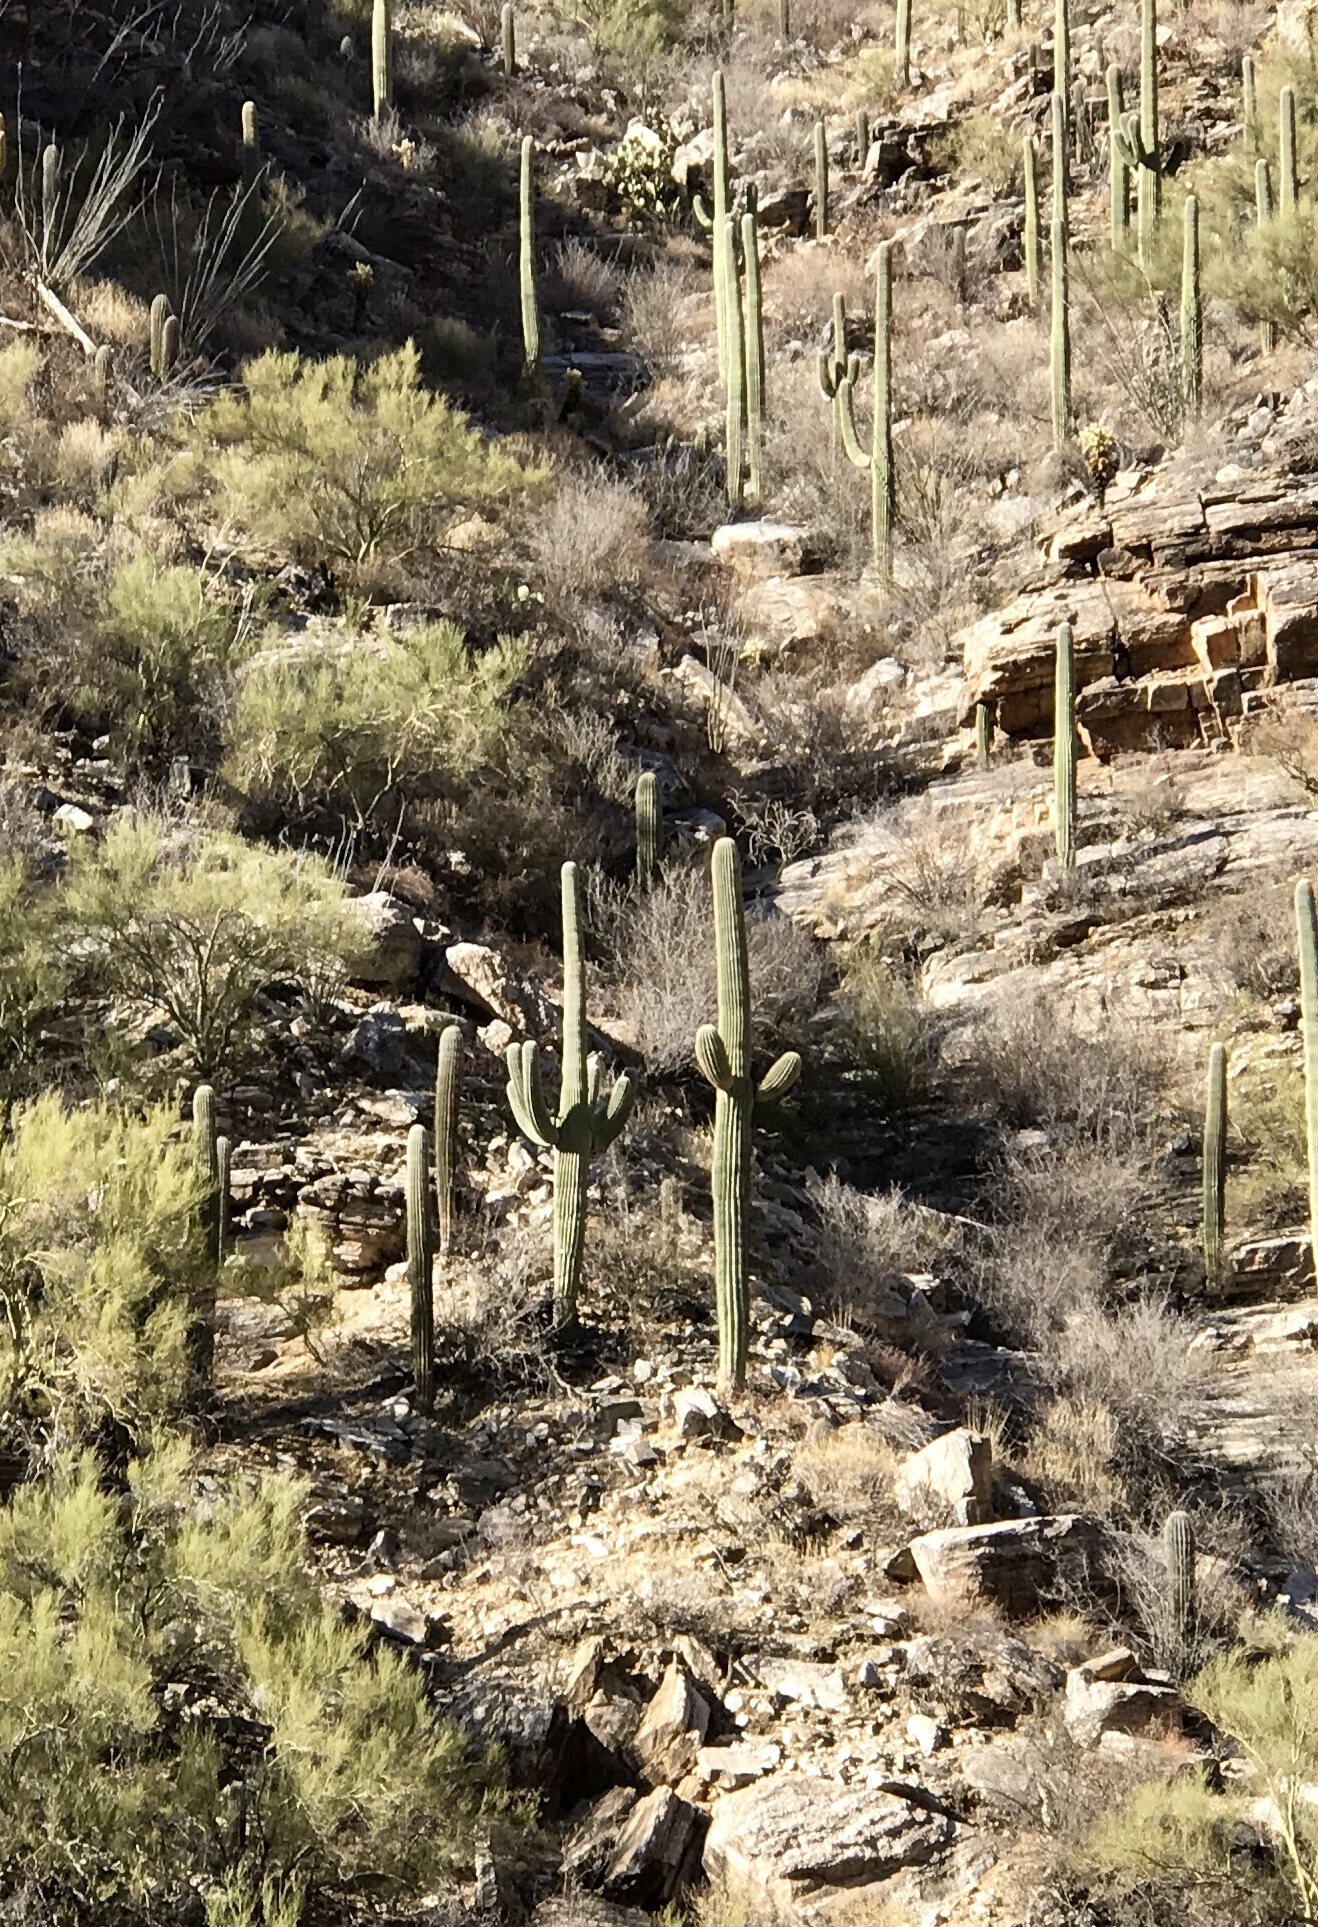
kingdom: Plantae
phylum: Tracheophyta
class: Magnoliopsida
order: Caryophyllales
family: Cactaceae
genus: Carnegiea
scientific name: Carnegiea gigantea
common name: Saguaro
